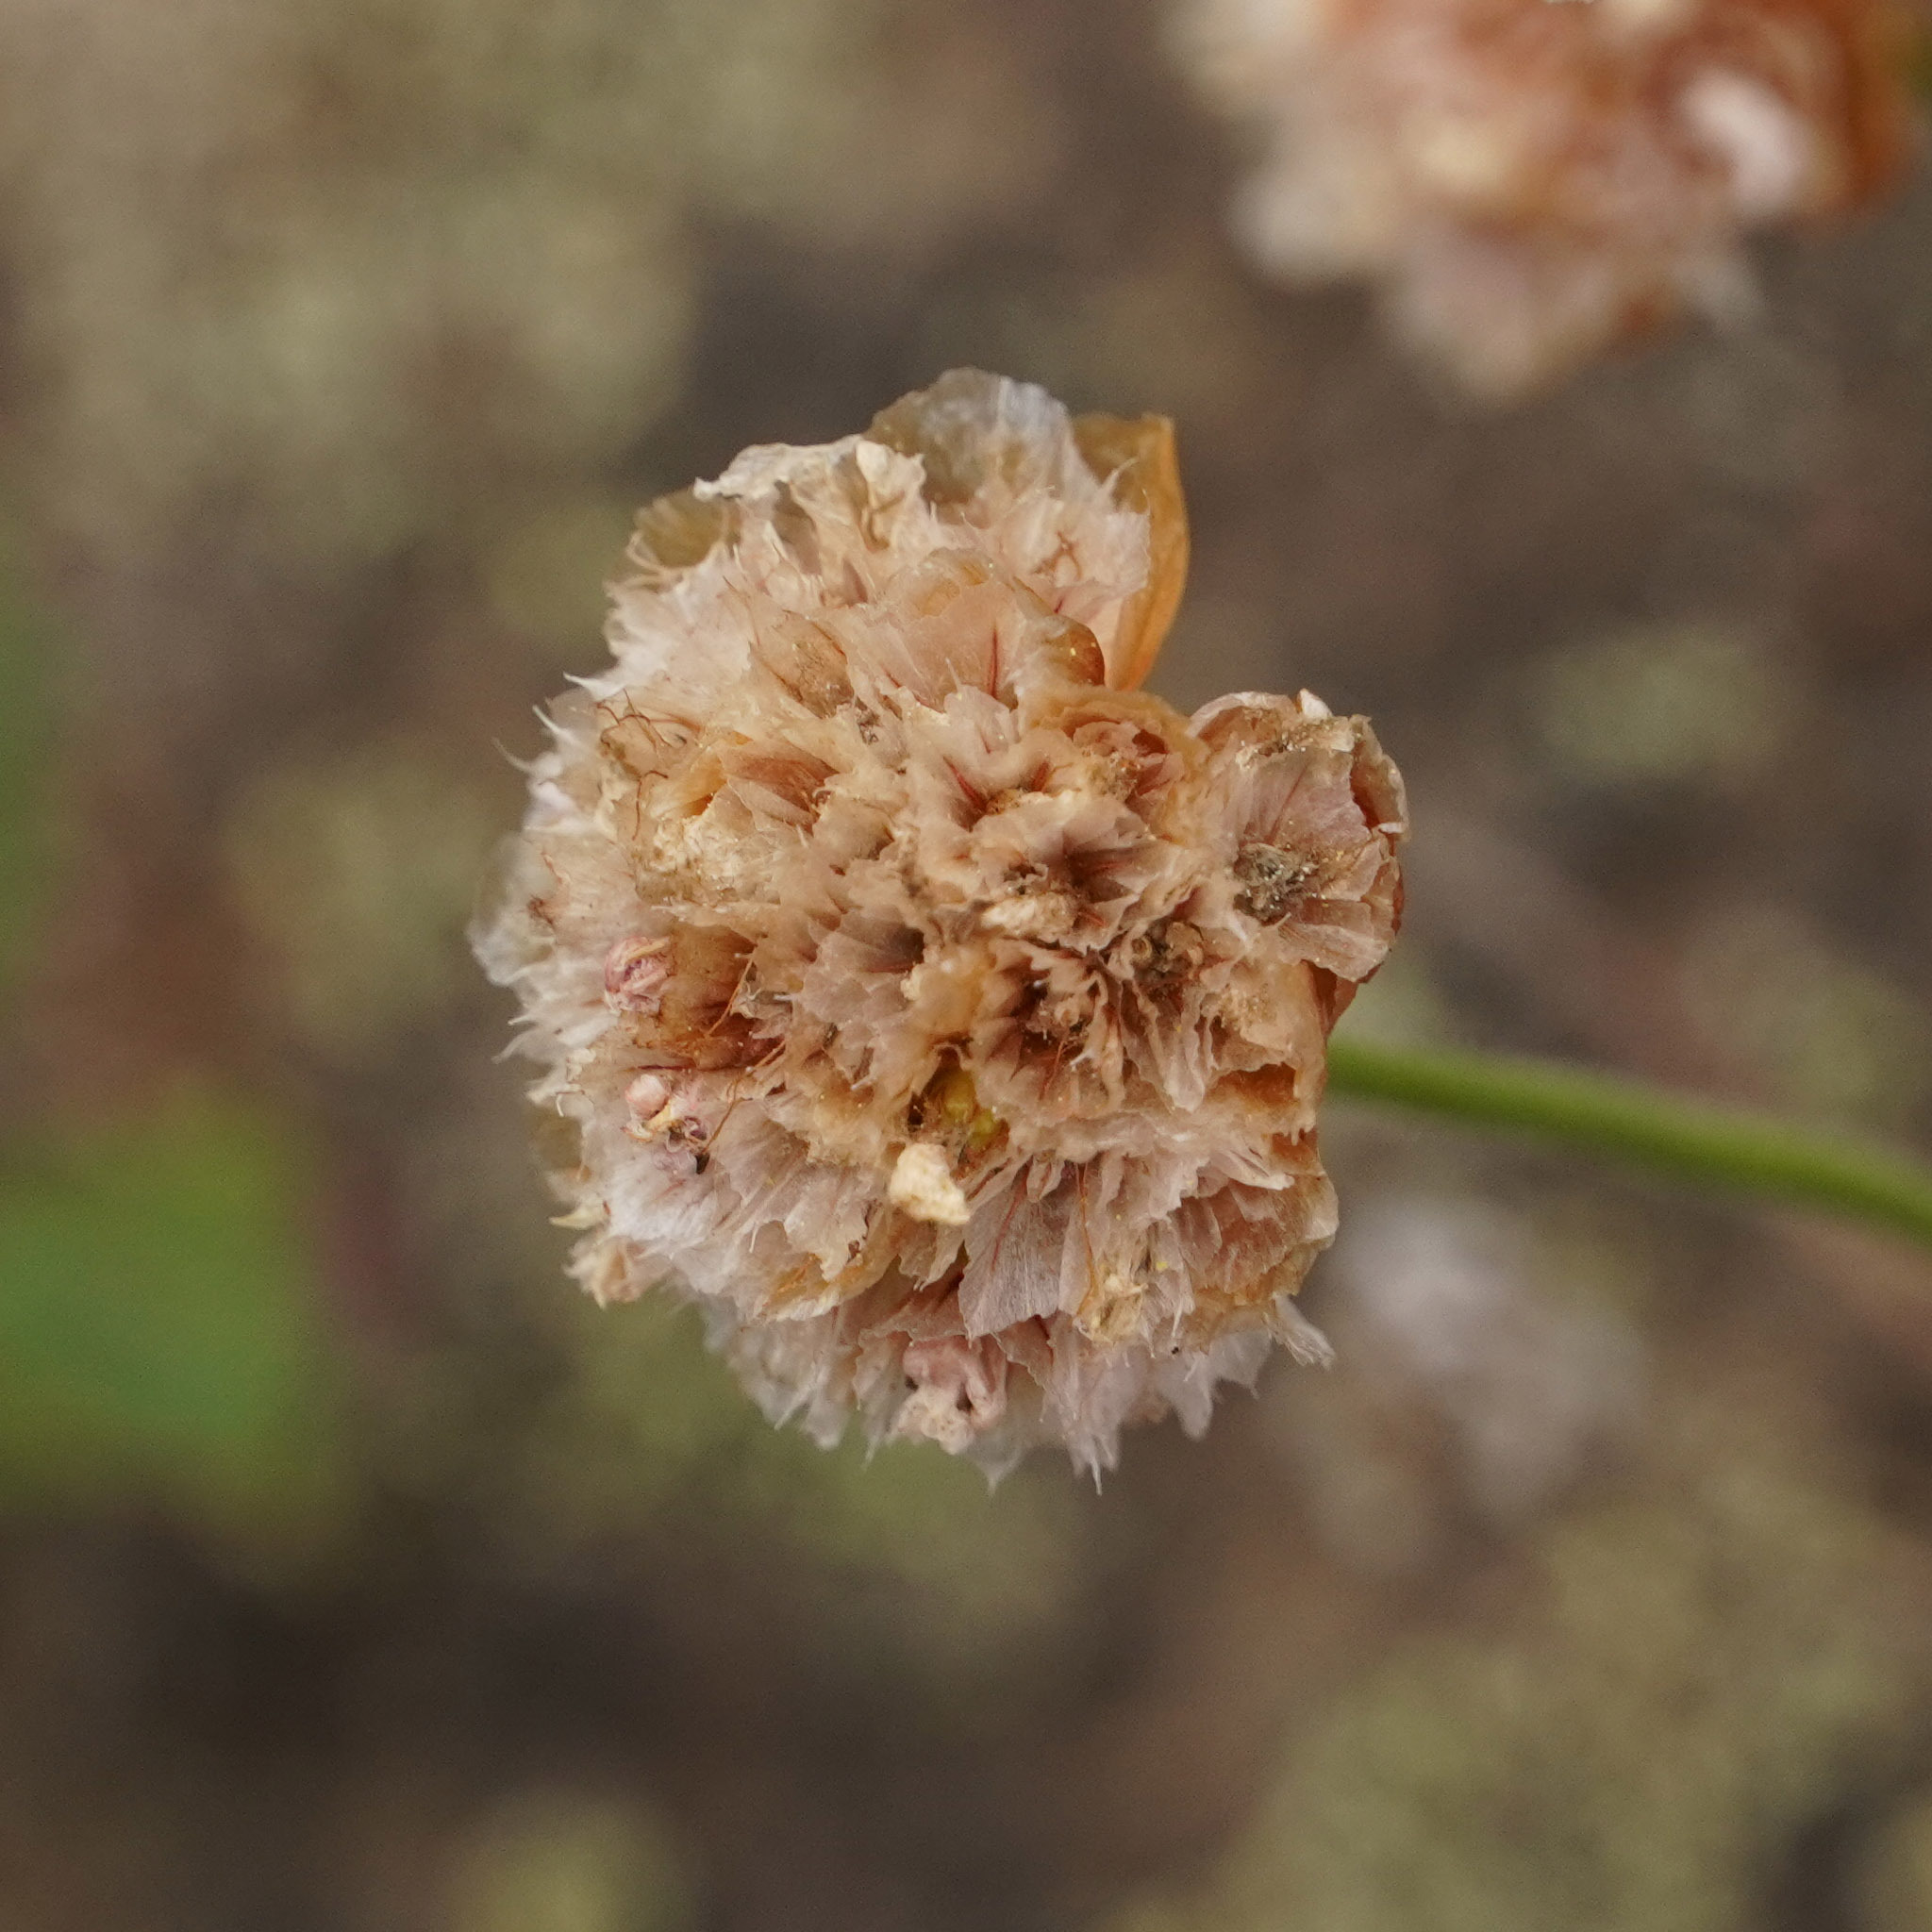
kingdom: Plantae
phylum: Tracheophyta
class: Magnoliopsida
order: Caryophyllales
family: Plumbaginaceae
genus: Armeria
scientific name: Armeria maritima
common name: Thrift
